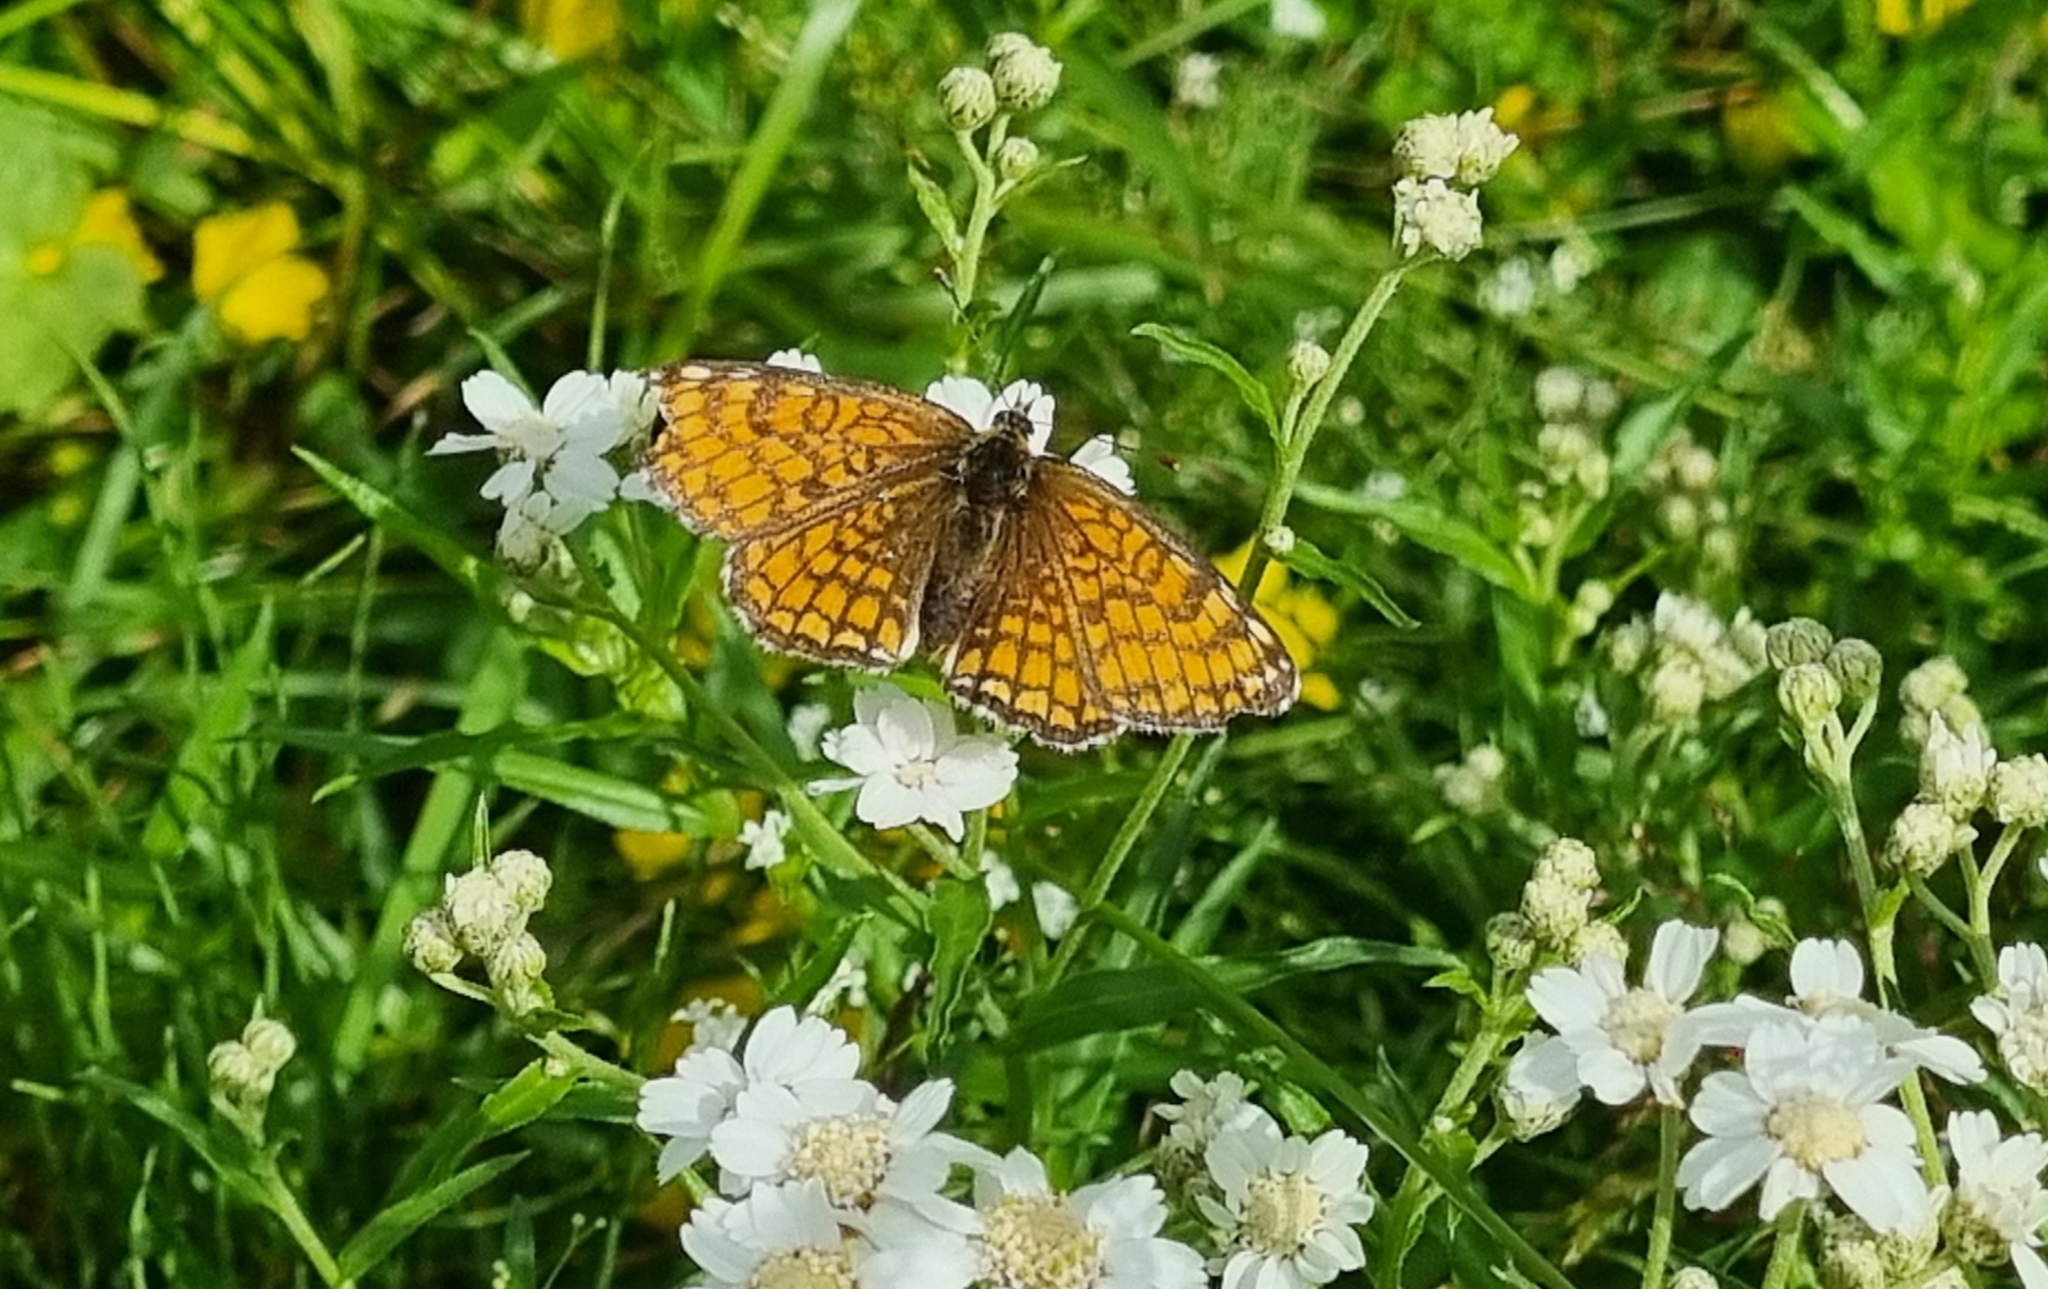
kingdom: Animalia
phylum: Arthropoda
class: Insecta
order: Lepidoptera
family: Nymphalidae
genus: Melitaea
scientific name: Melitaea athalia
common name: Heath fritillary
